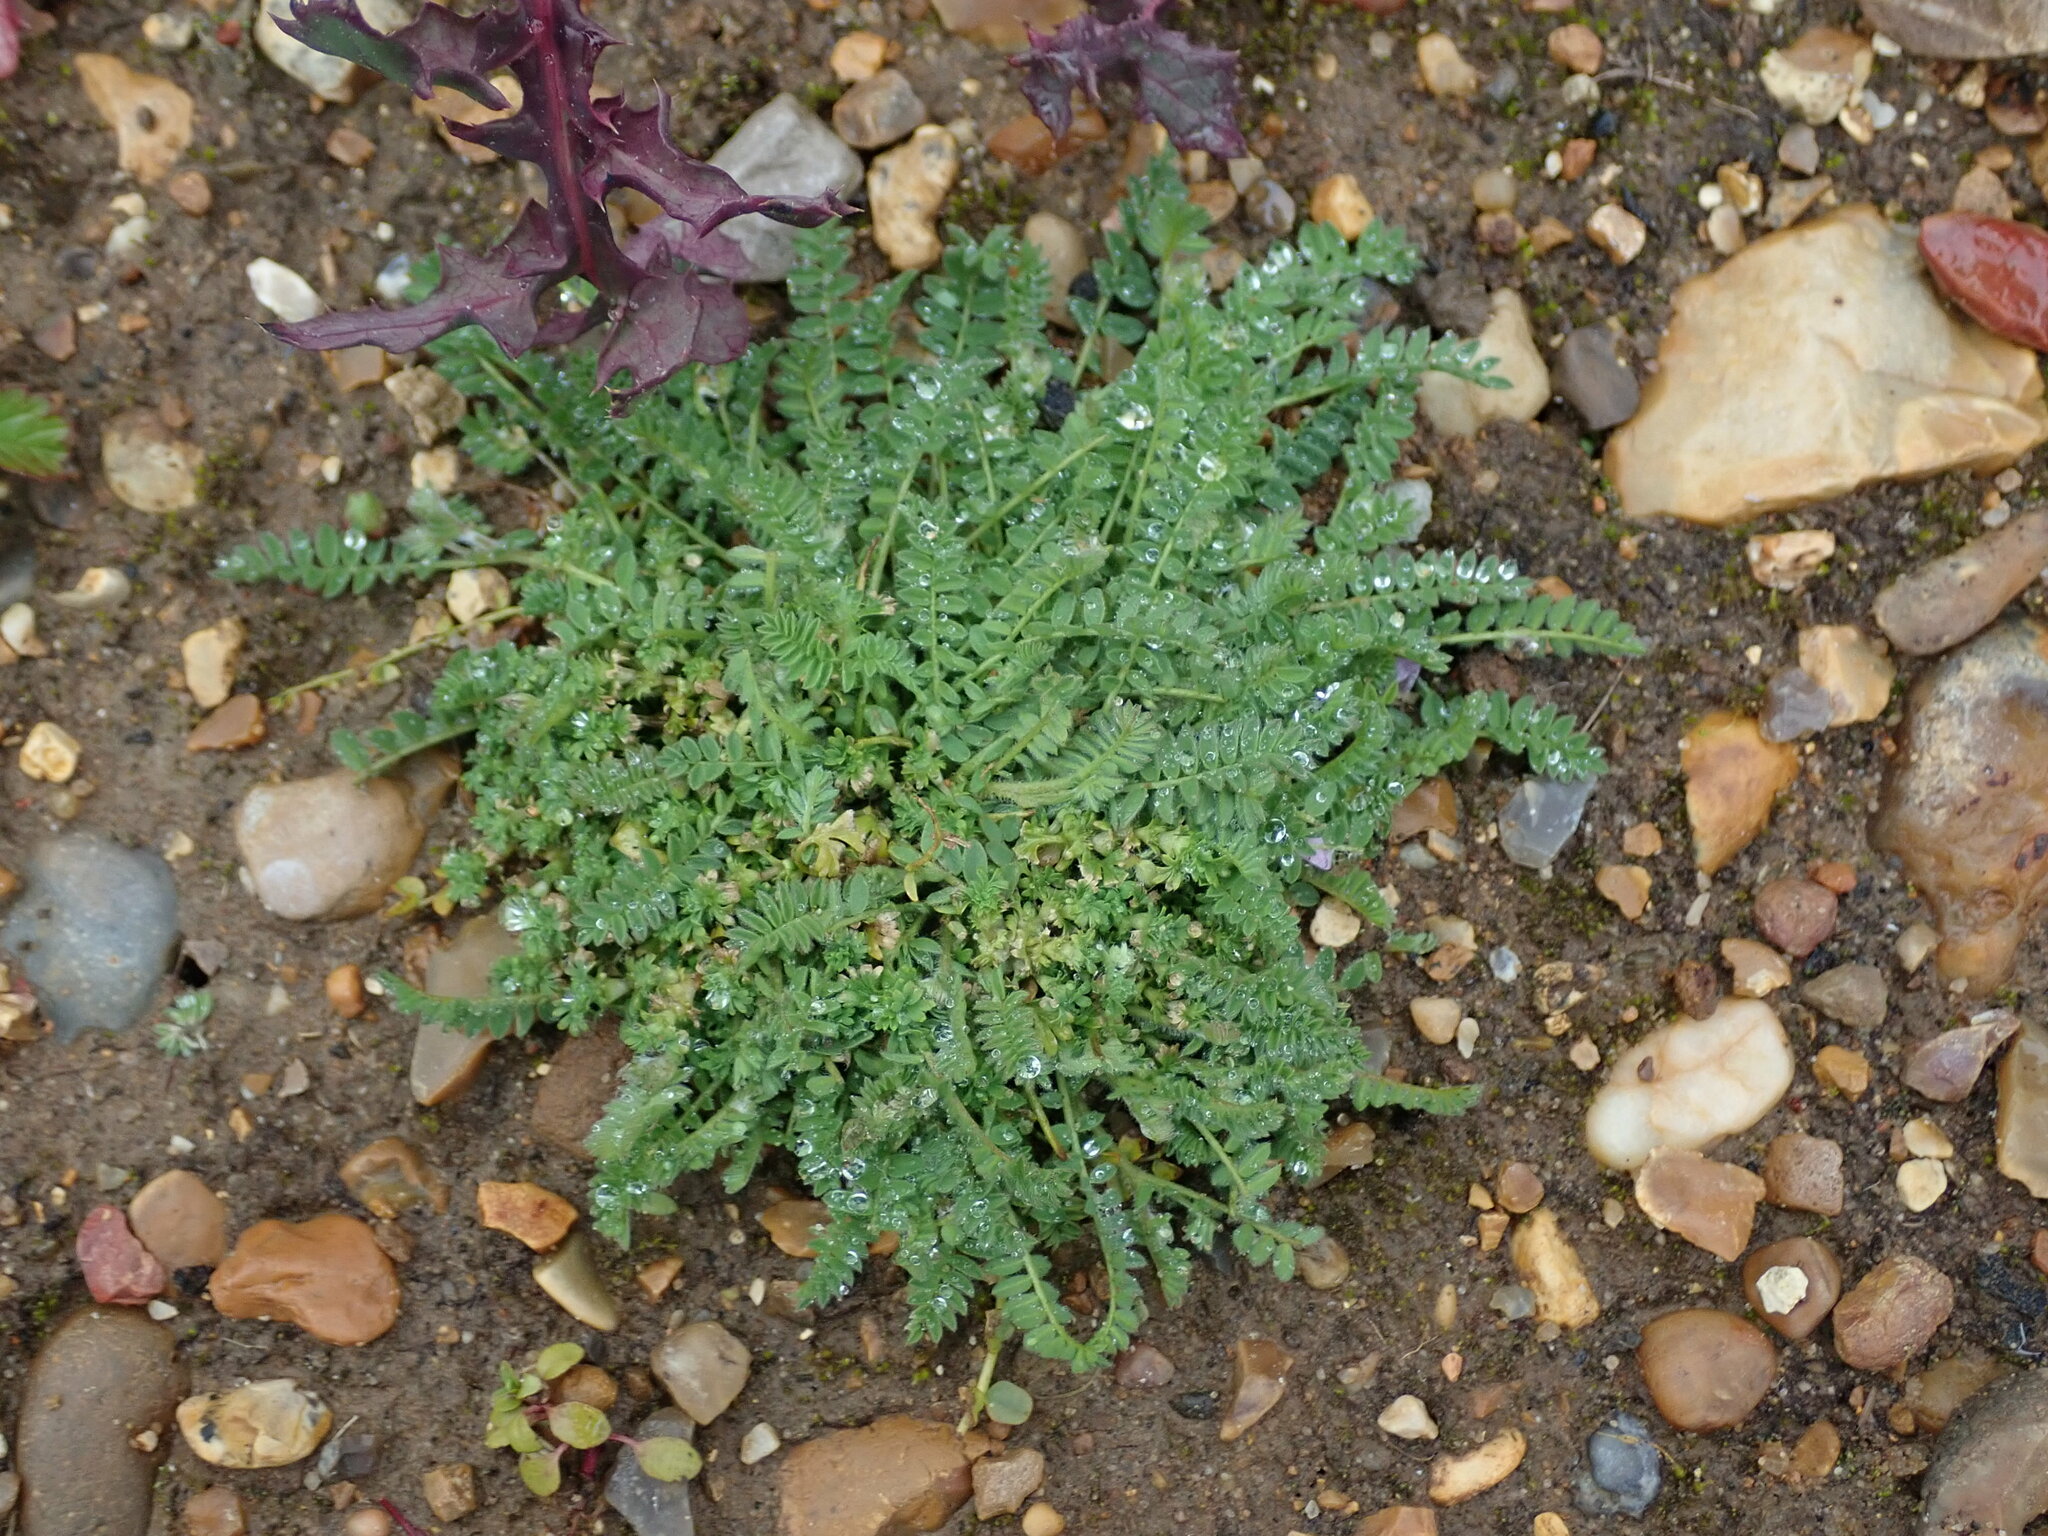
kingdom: Plantae
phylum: Tracheophyta
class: Magnoliopsida
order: Fabales
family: Fabaceae
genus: Ornithopus
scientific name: Ornithopus perpusillus
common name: Bird's-foot
